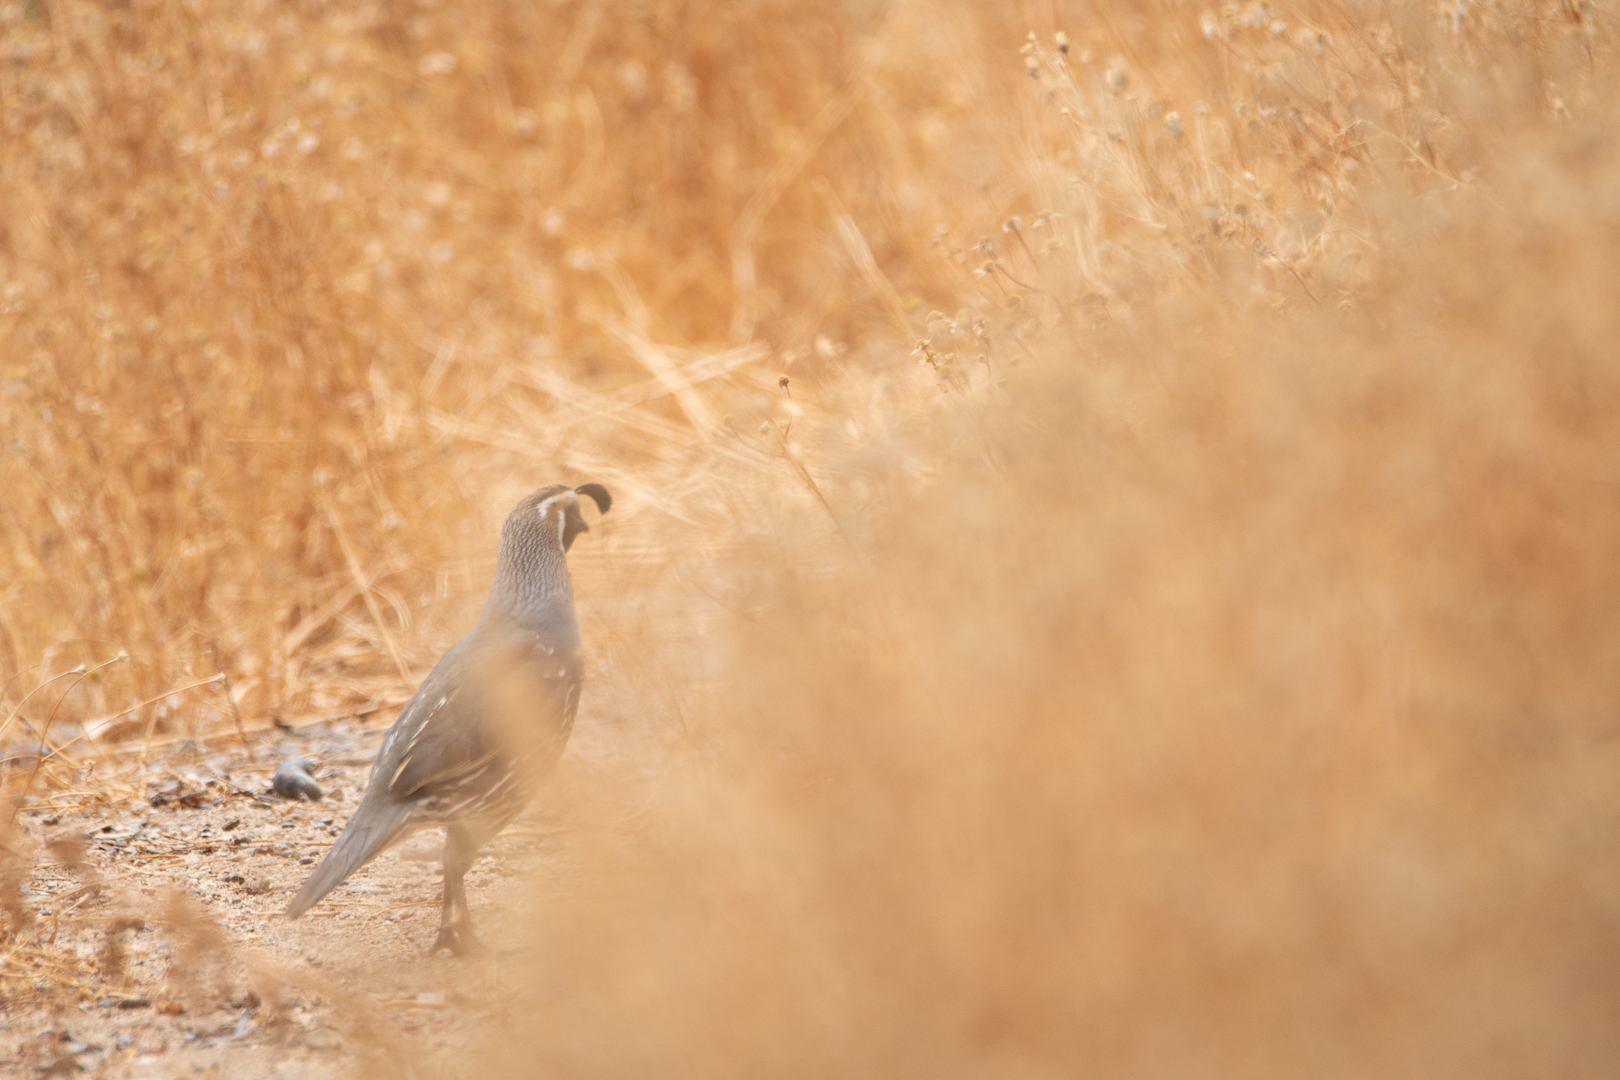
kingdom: Animalia
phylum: Chordata
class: Aves
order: Galliformes
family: Odontophoridae
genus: Callipepla
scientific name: Callipepla californica
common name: California quail
